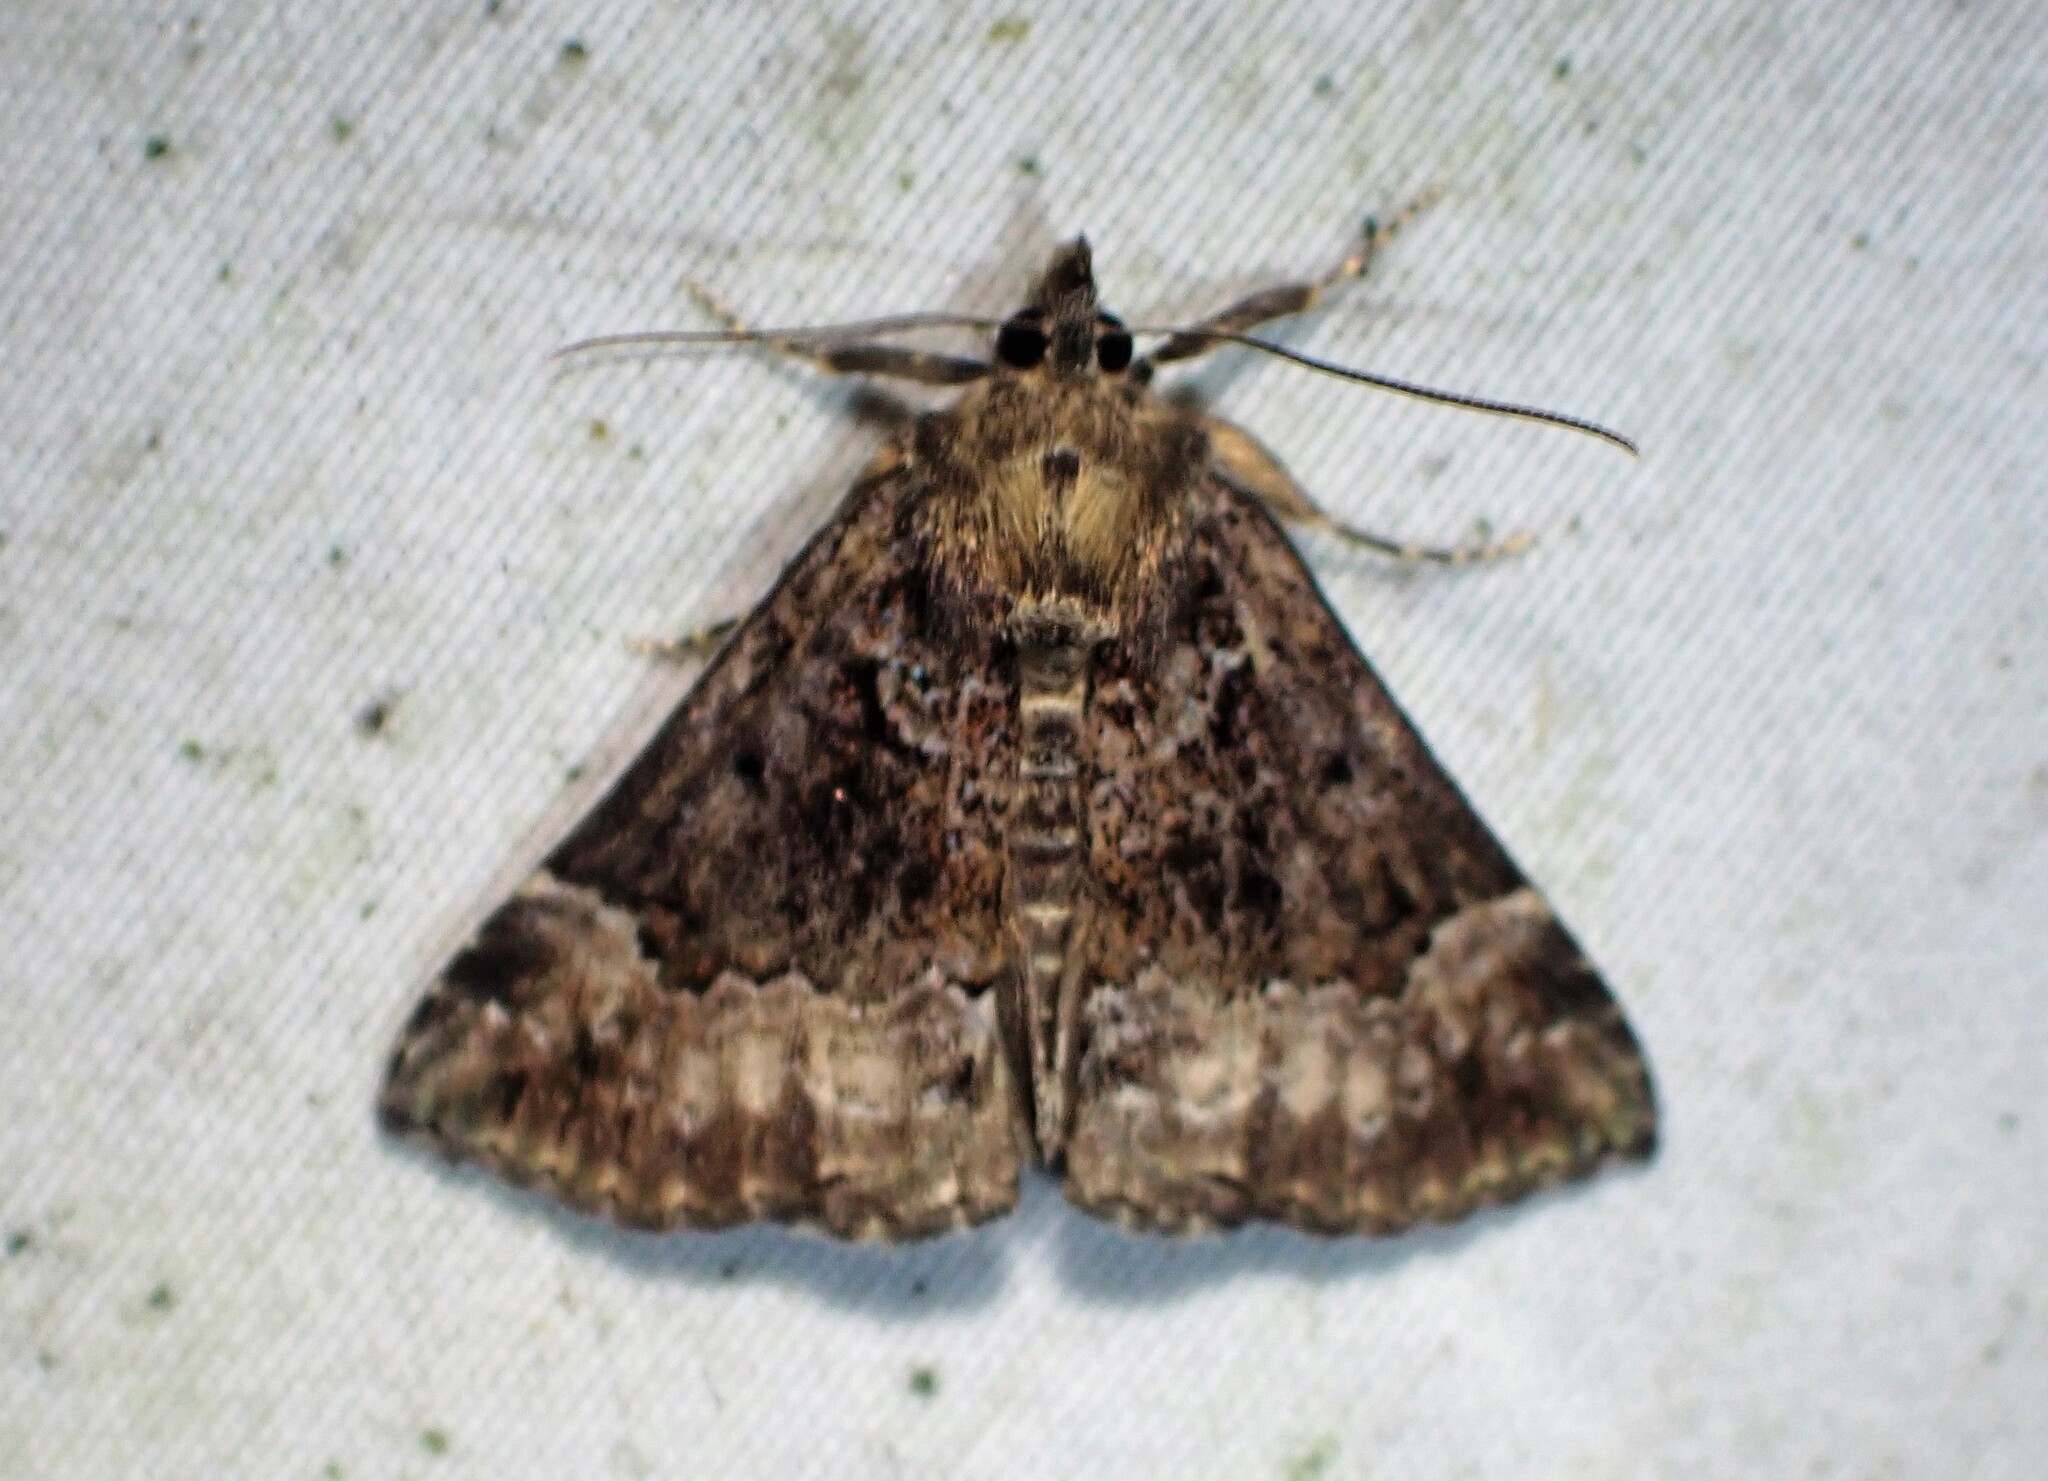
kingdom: Animalia
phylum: Arthropoda
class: Insecta
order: Lepidoptera
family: Erebidae
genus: Hypena
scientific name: Hypena palparia
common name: Mottled bomolocha moth
